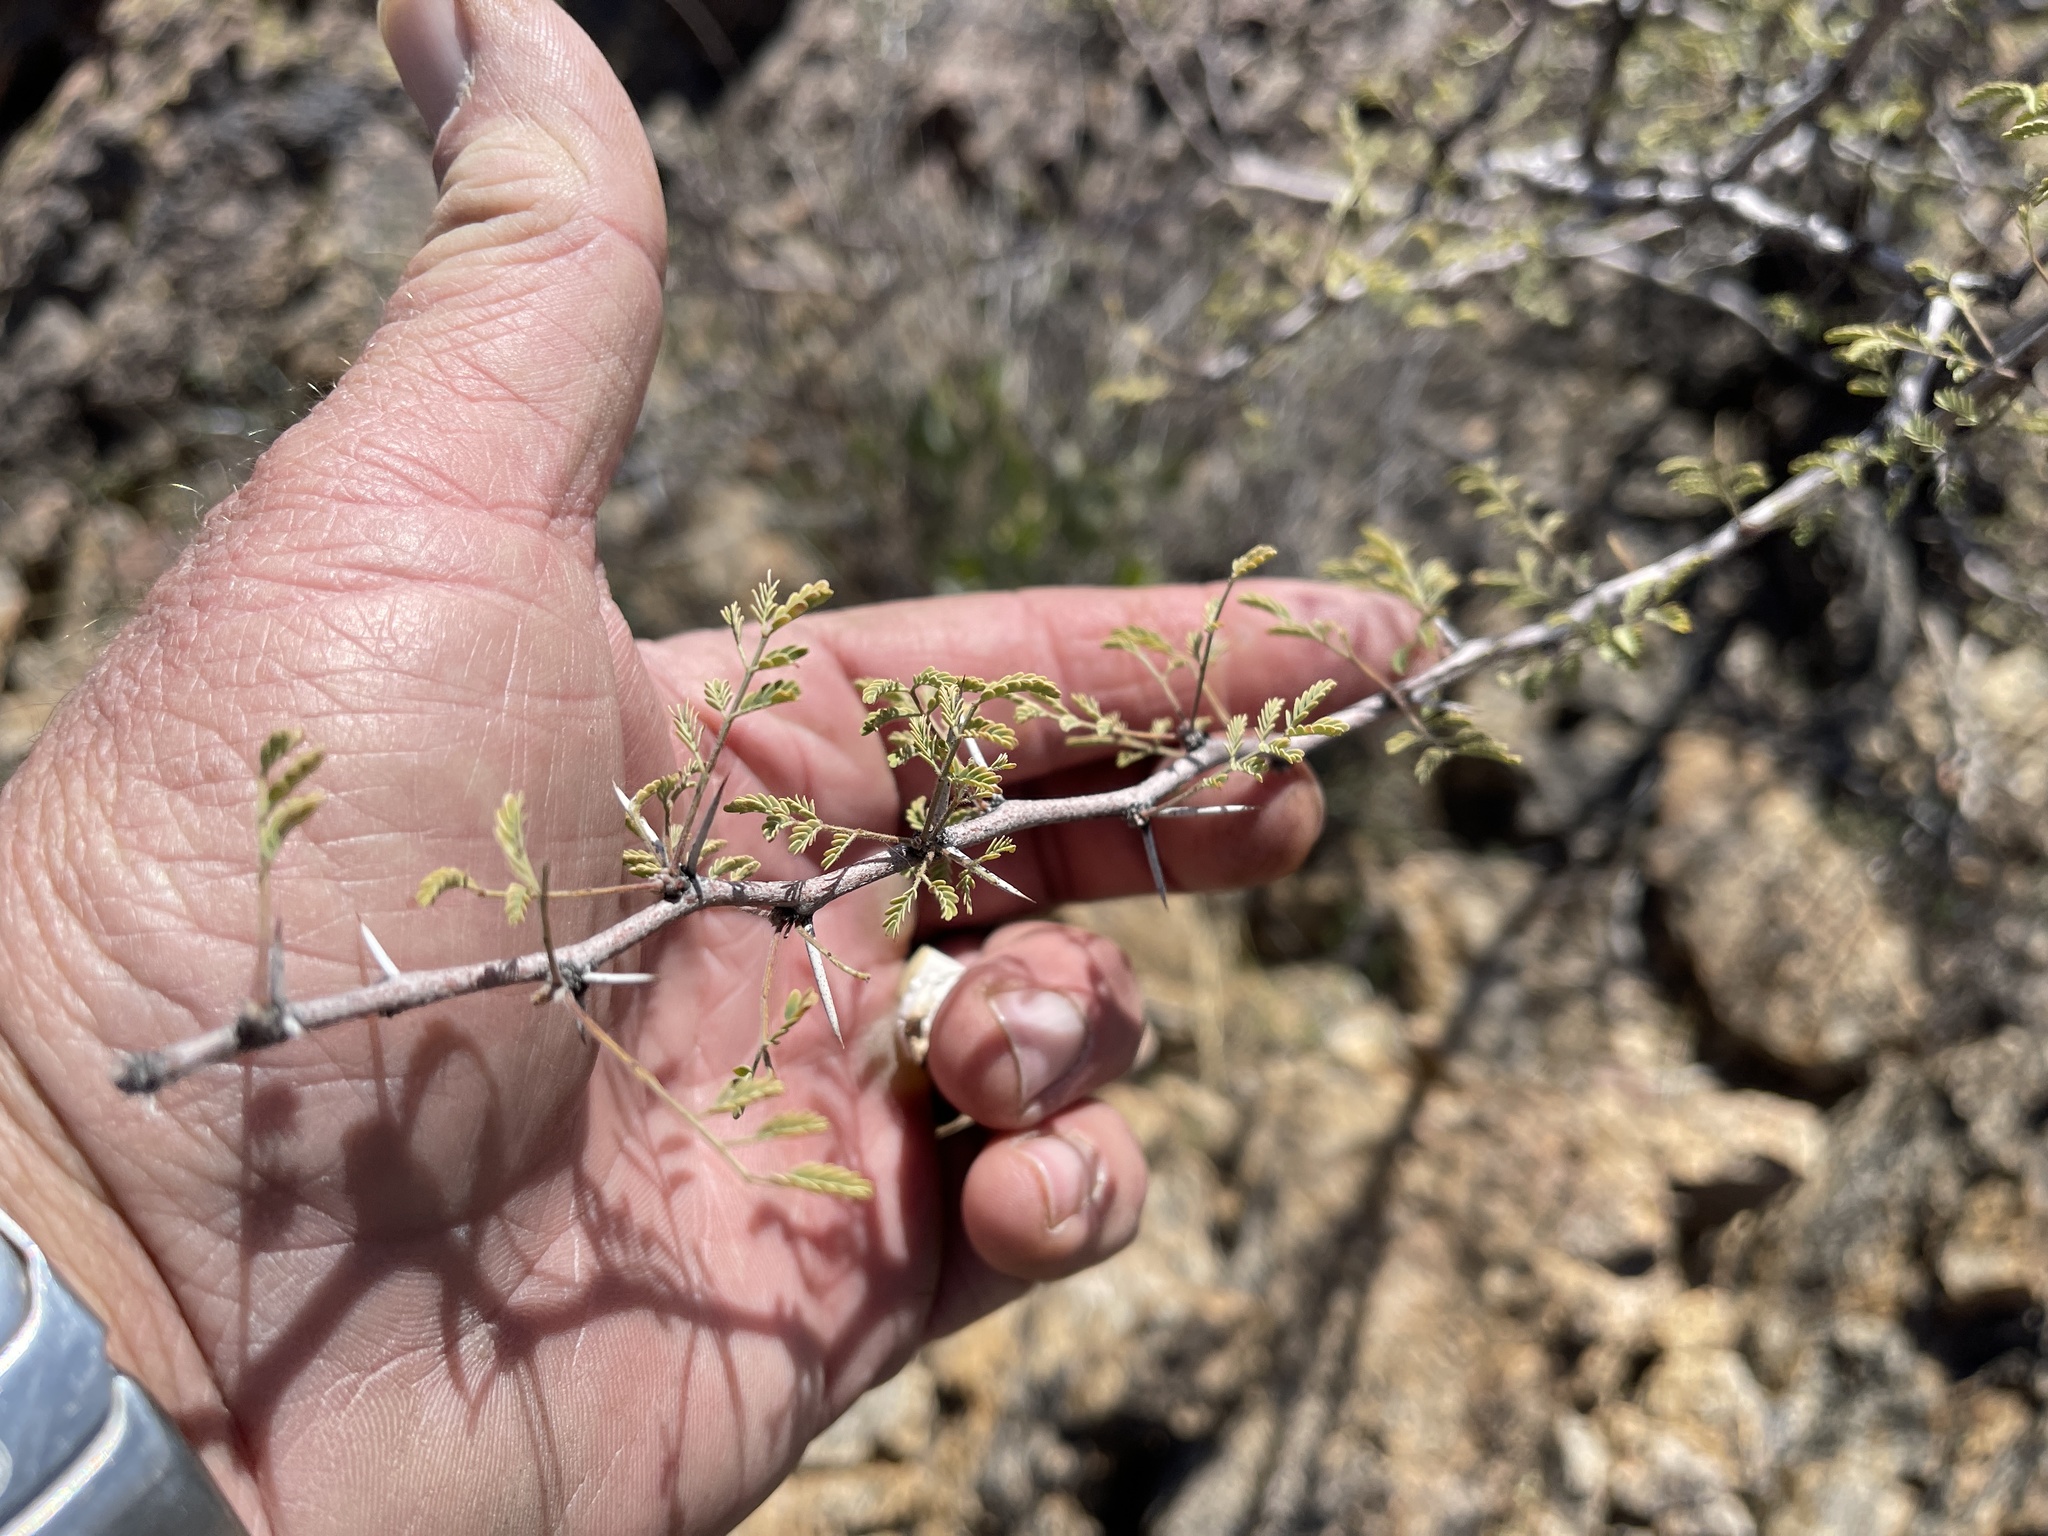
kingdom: Plantae
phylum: Tracheophyta
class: Magnoliopsida
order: Fabales
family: Fabaceae
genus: Vachellia
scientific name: Vachellia constricta
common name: Mescat acacia
